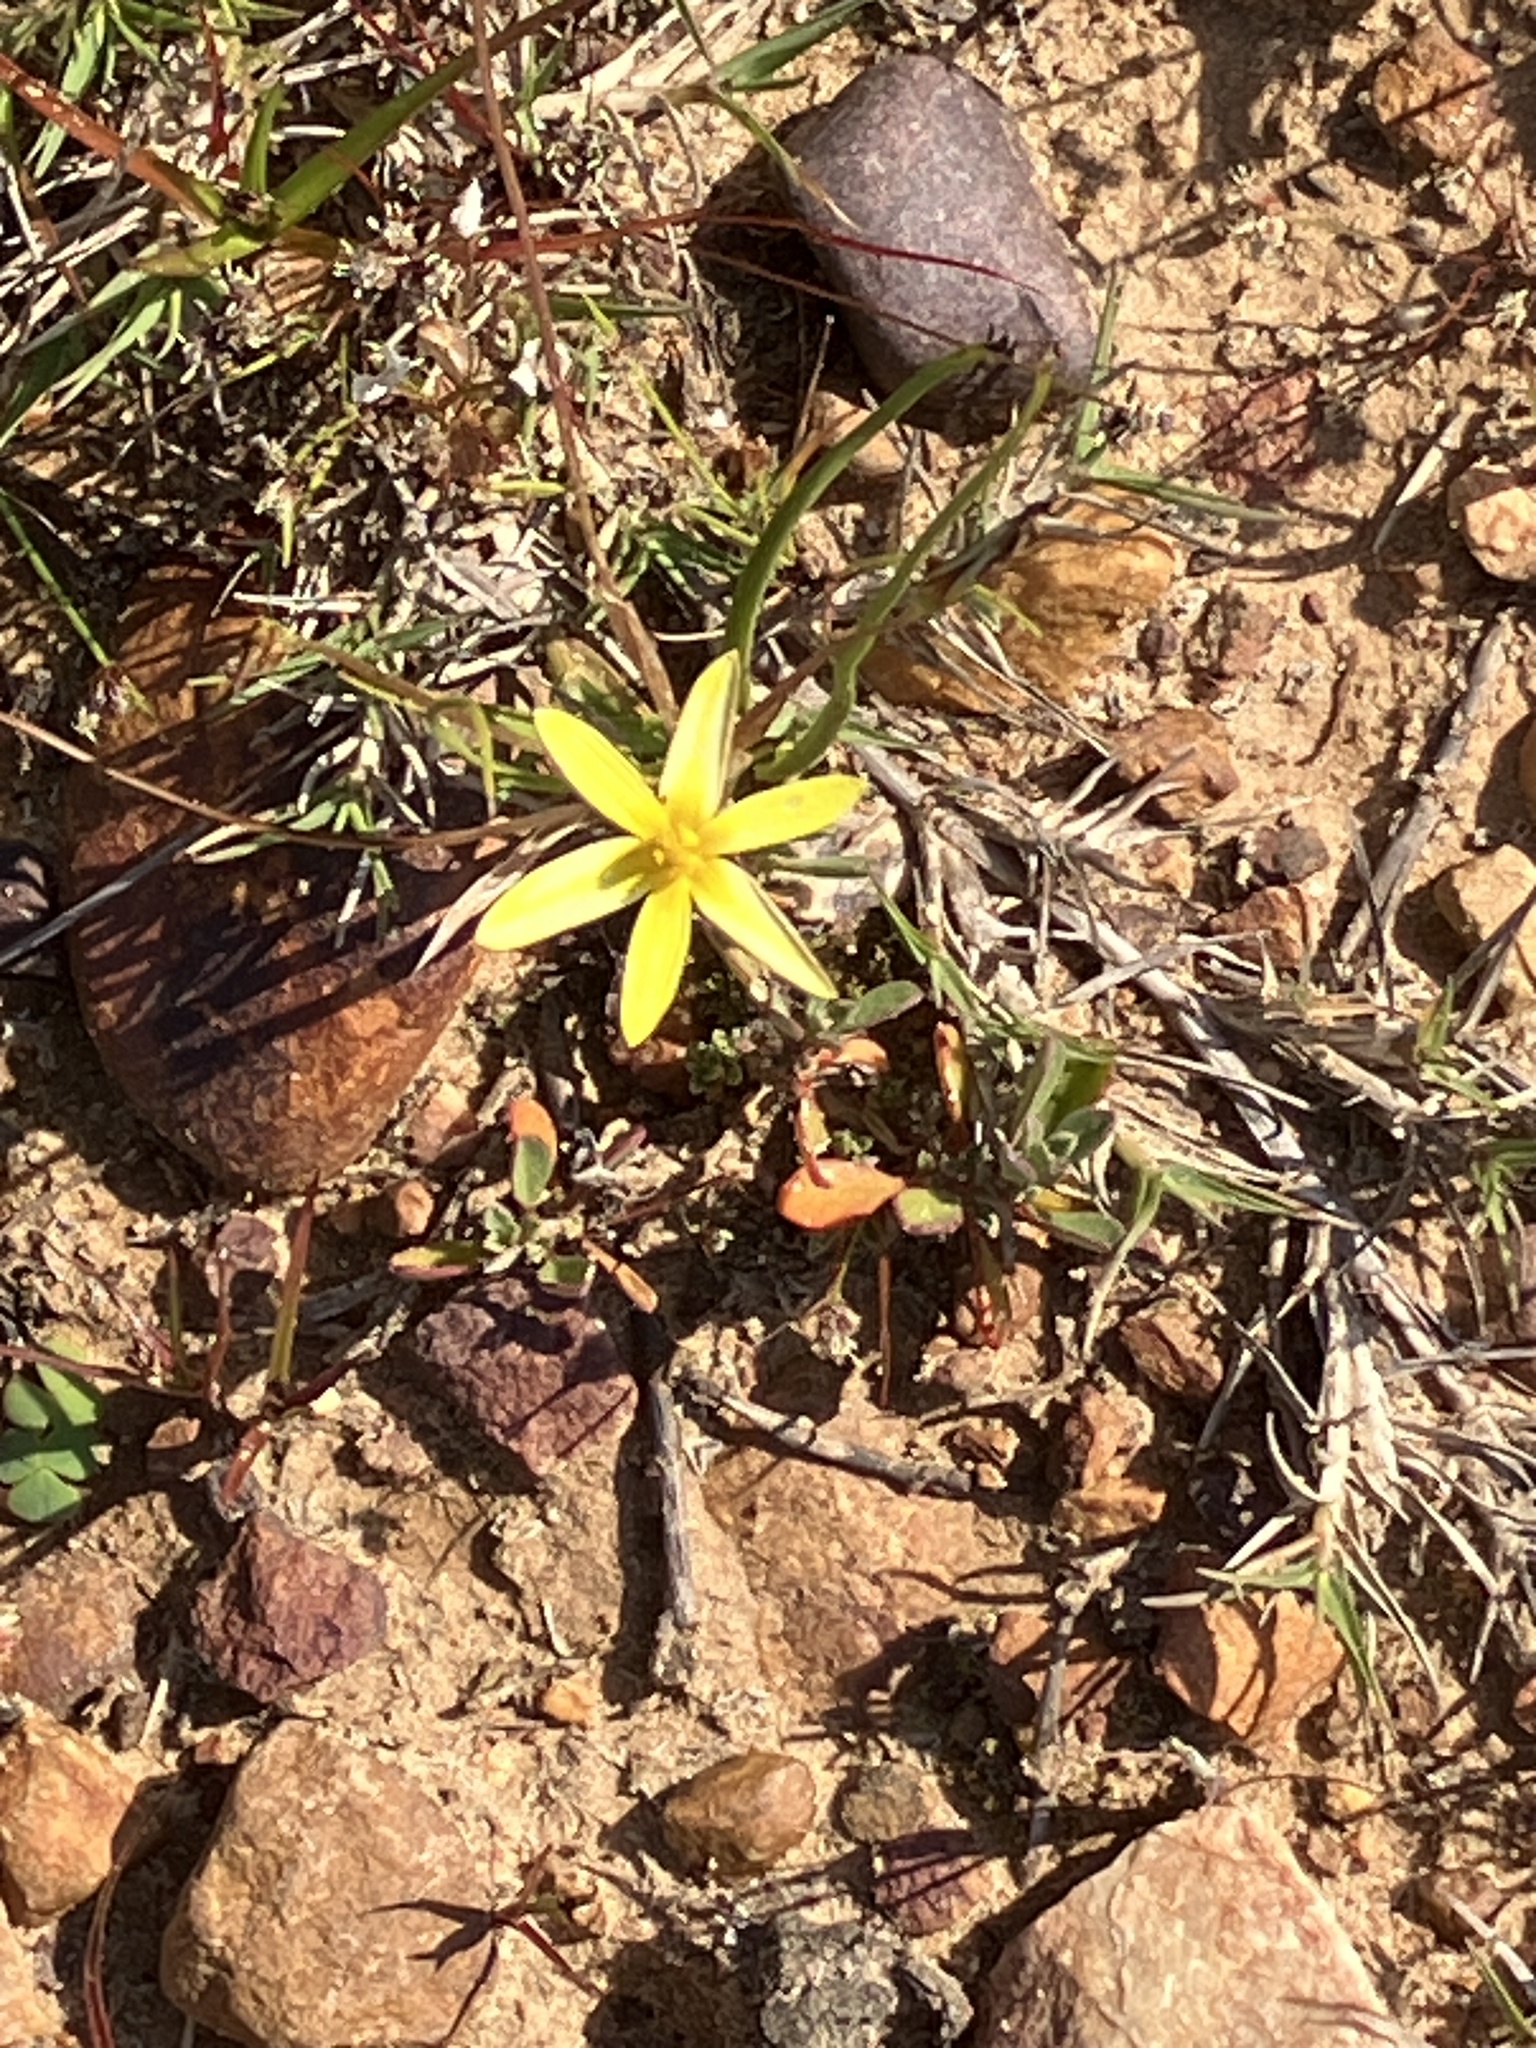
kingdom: Plantae
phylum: Tracheophyta
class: Liliopsida
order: Asparagales
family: Hypoxidaceae
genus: Pauridia
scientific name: Pauridia aemulans
